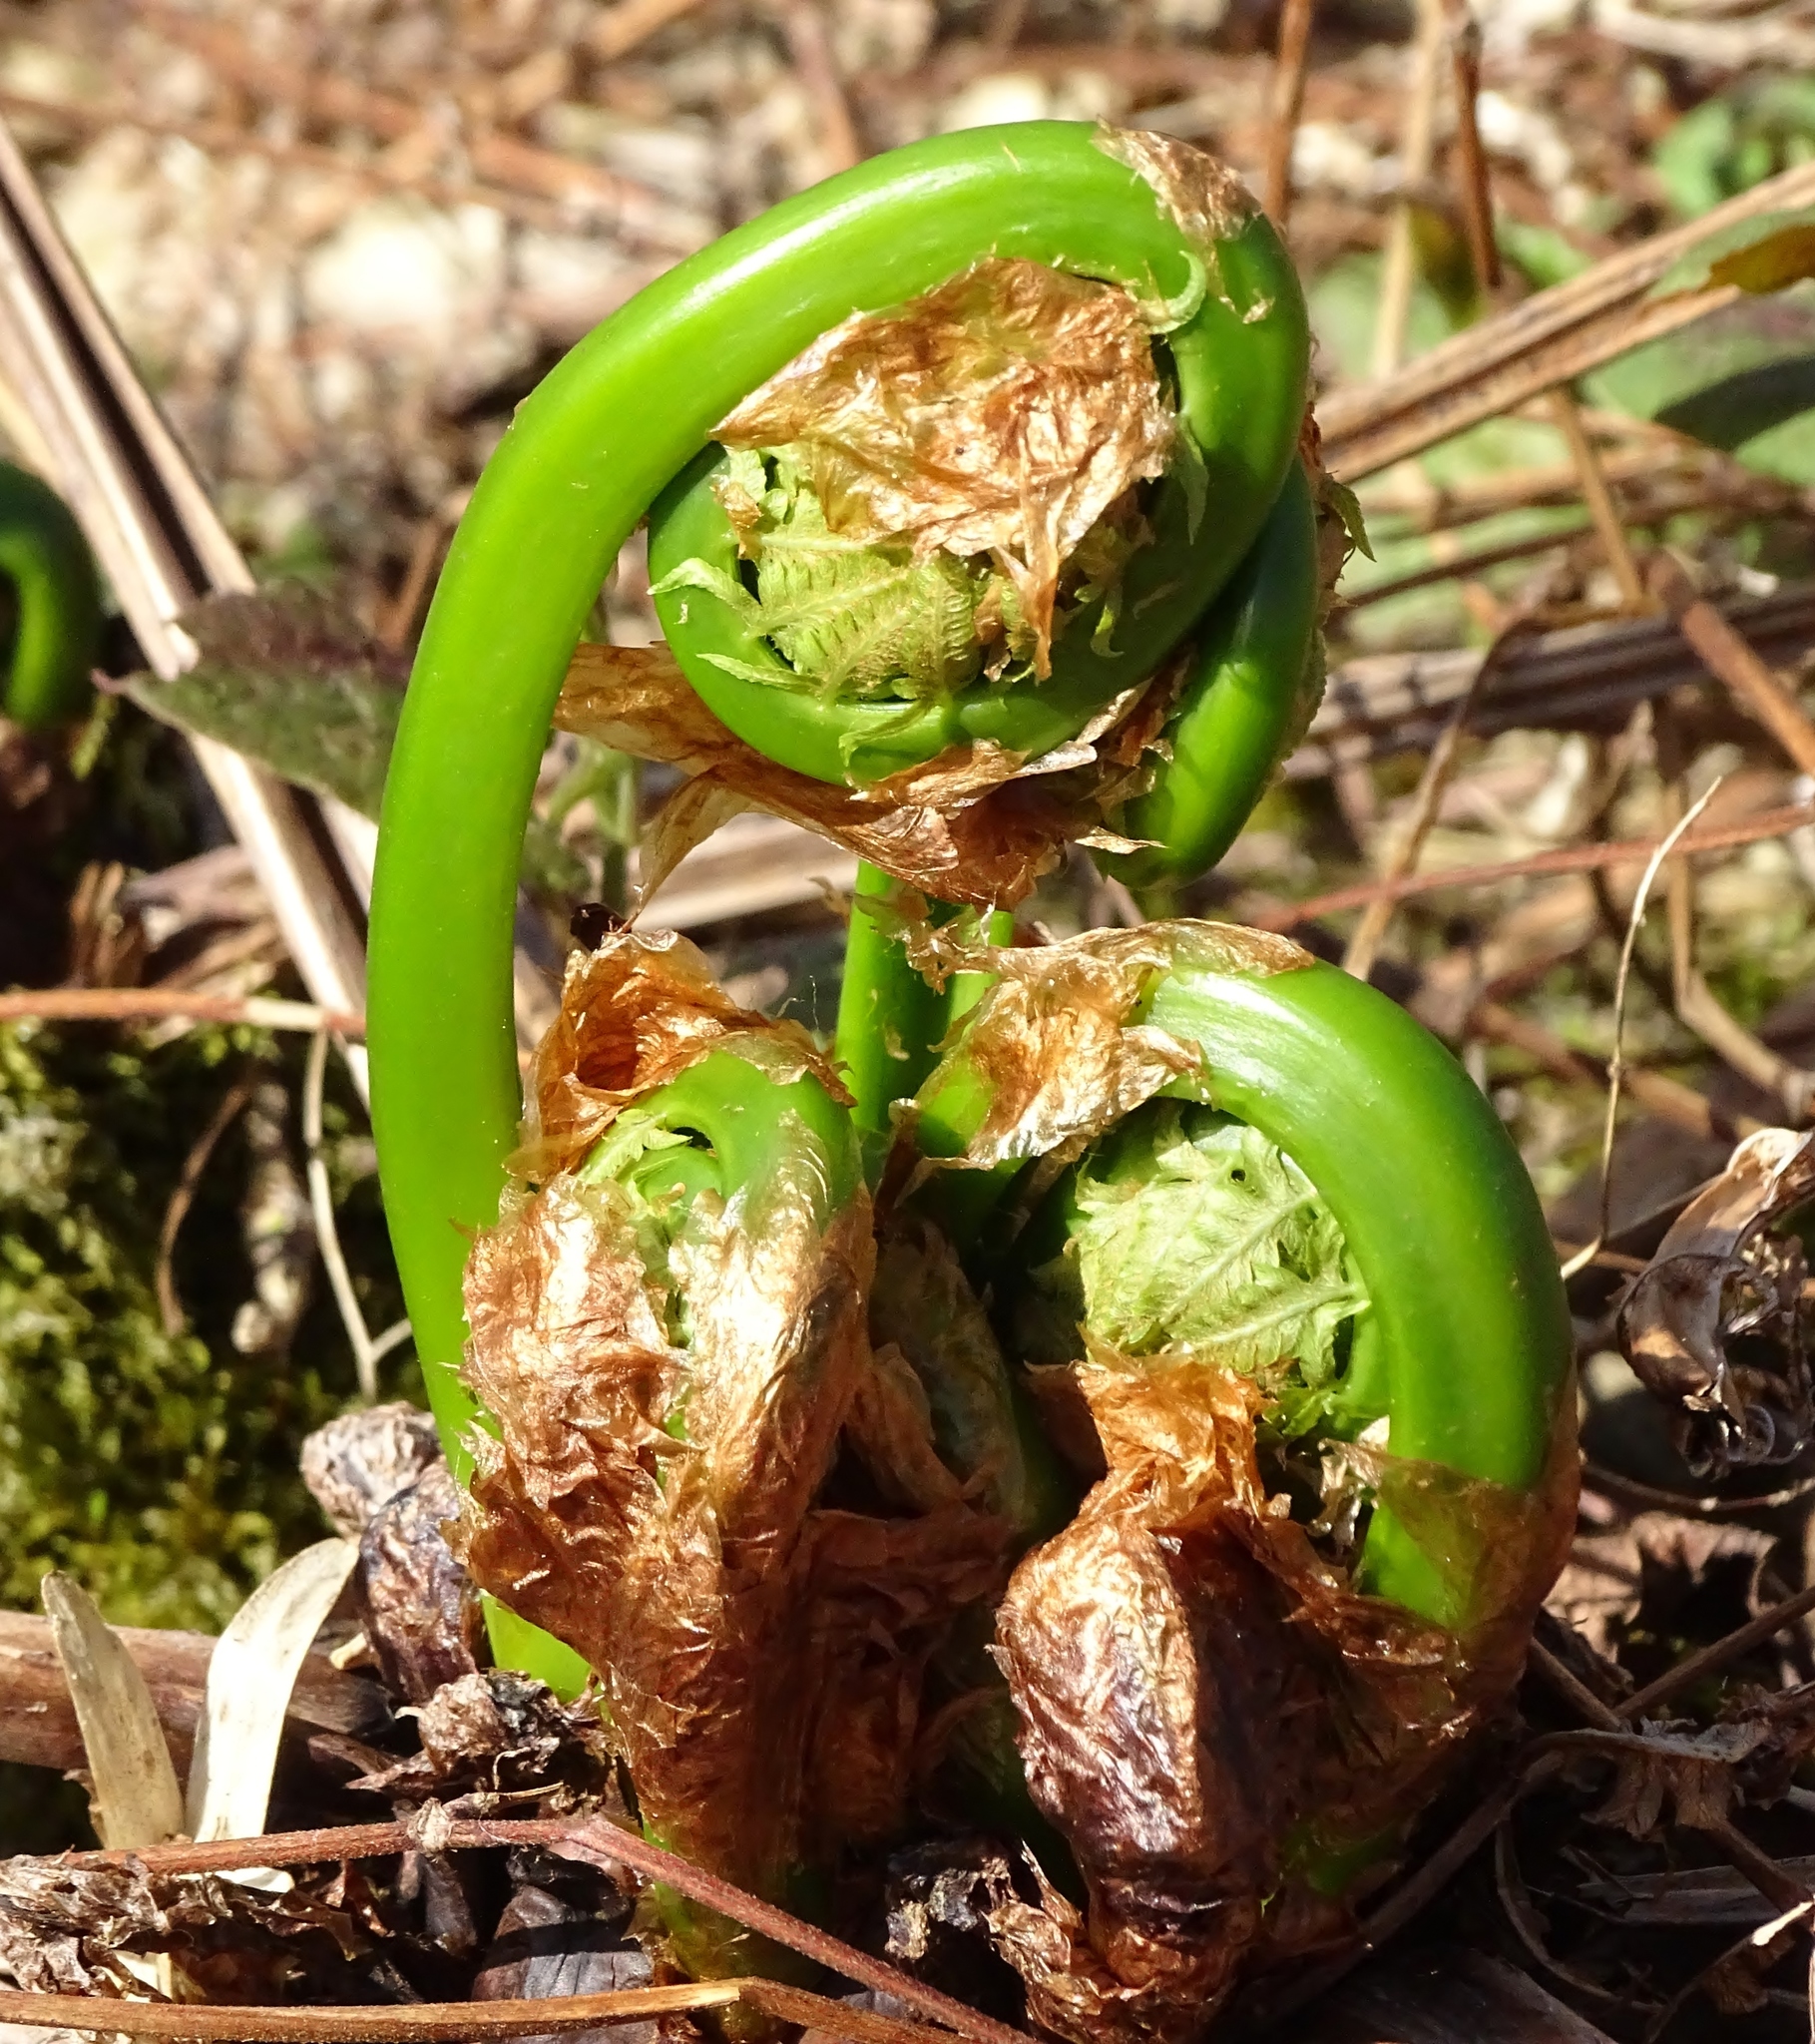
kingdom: Plantae
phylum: Tracheophyta
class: Polypodiopsida
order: Polypodiales
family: Onocleaceae
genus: Matteuccia
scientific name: Matteuccia struthiopteris
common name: Ostrich fern
